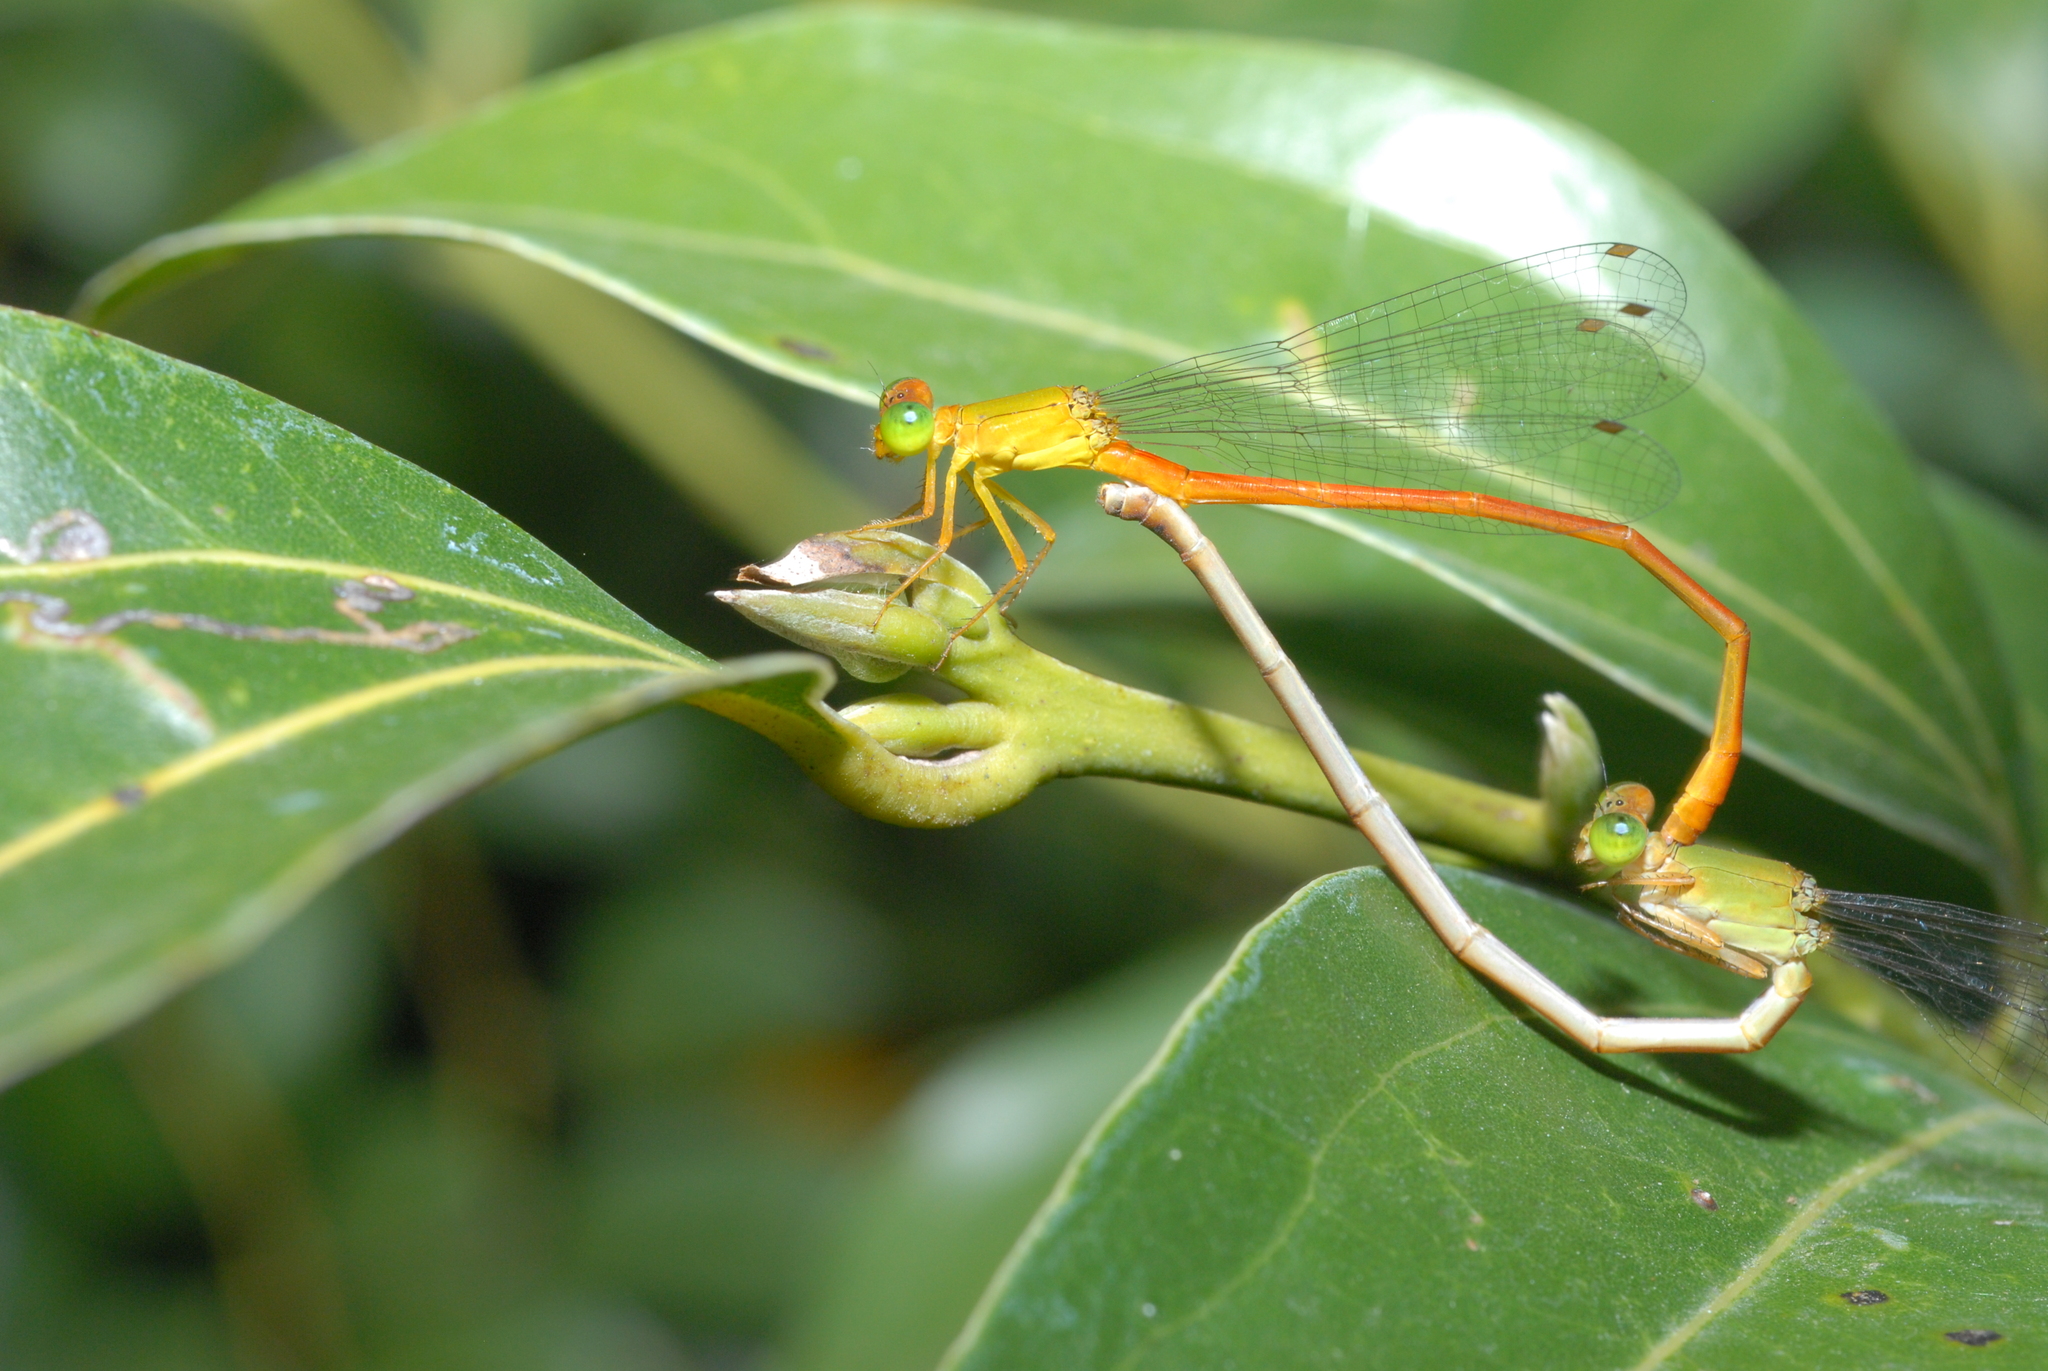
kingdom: Animalia
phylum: Arthropoda
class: Insecta
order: Odonata
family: Coenagrionidae
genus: Ceriagrion
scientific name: Ceriagrion auranticum
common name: Orange-tailed sprite
